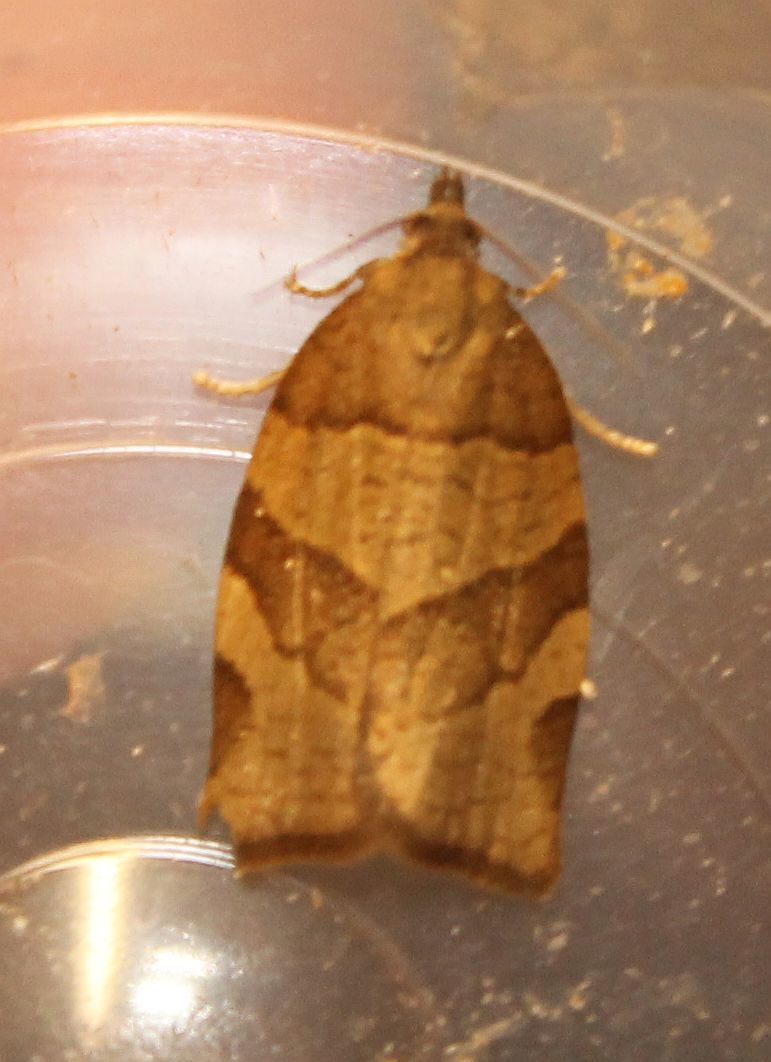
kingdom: Animalia
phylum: Arthropoda
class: Insecta
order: Lepidoptera
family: Tortricidae
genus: Pandemis
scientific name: Pandemis cerasana
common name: Barred fruit-tree tortrix
